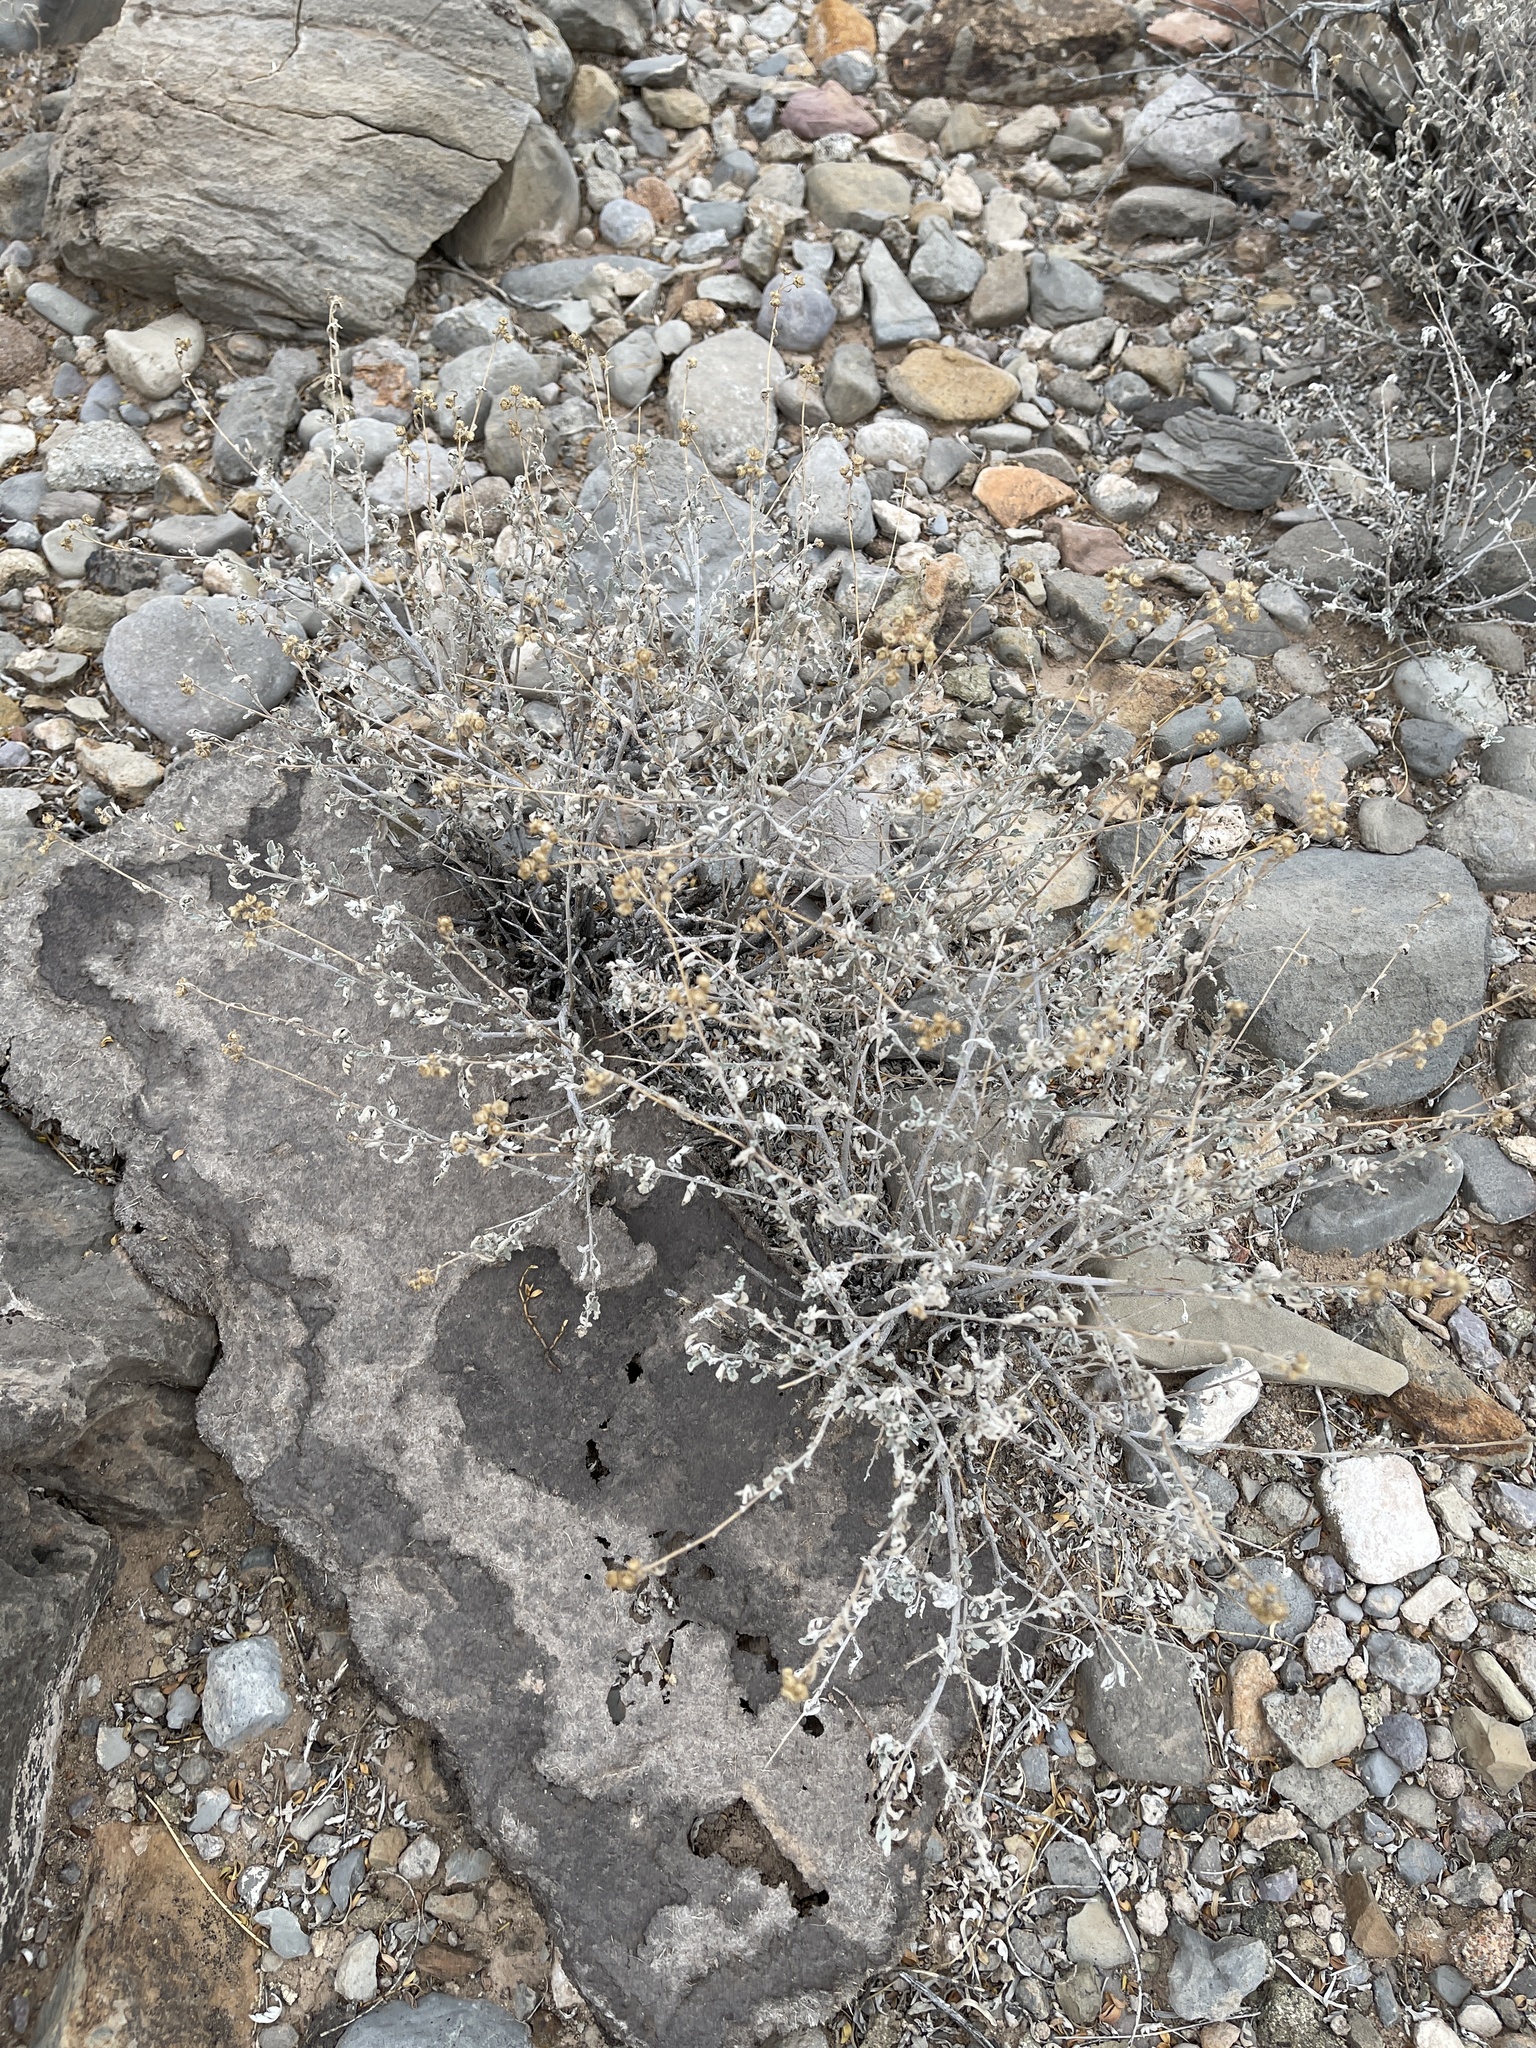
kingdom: Plantae
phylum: Tracheophyta
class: Magnoliopsida
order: Asterales
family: Asteraceae
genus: Parthenium
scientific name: Parthenium incanum
